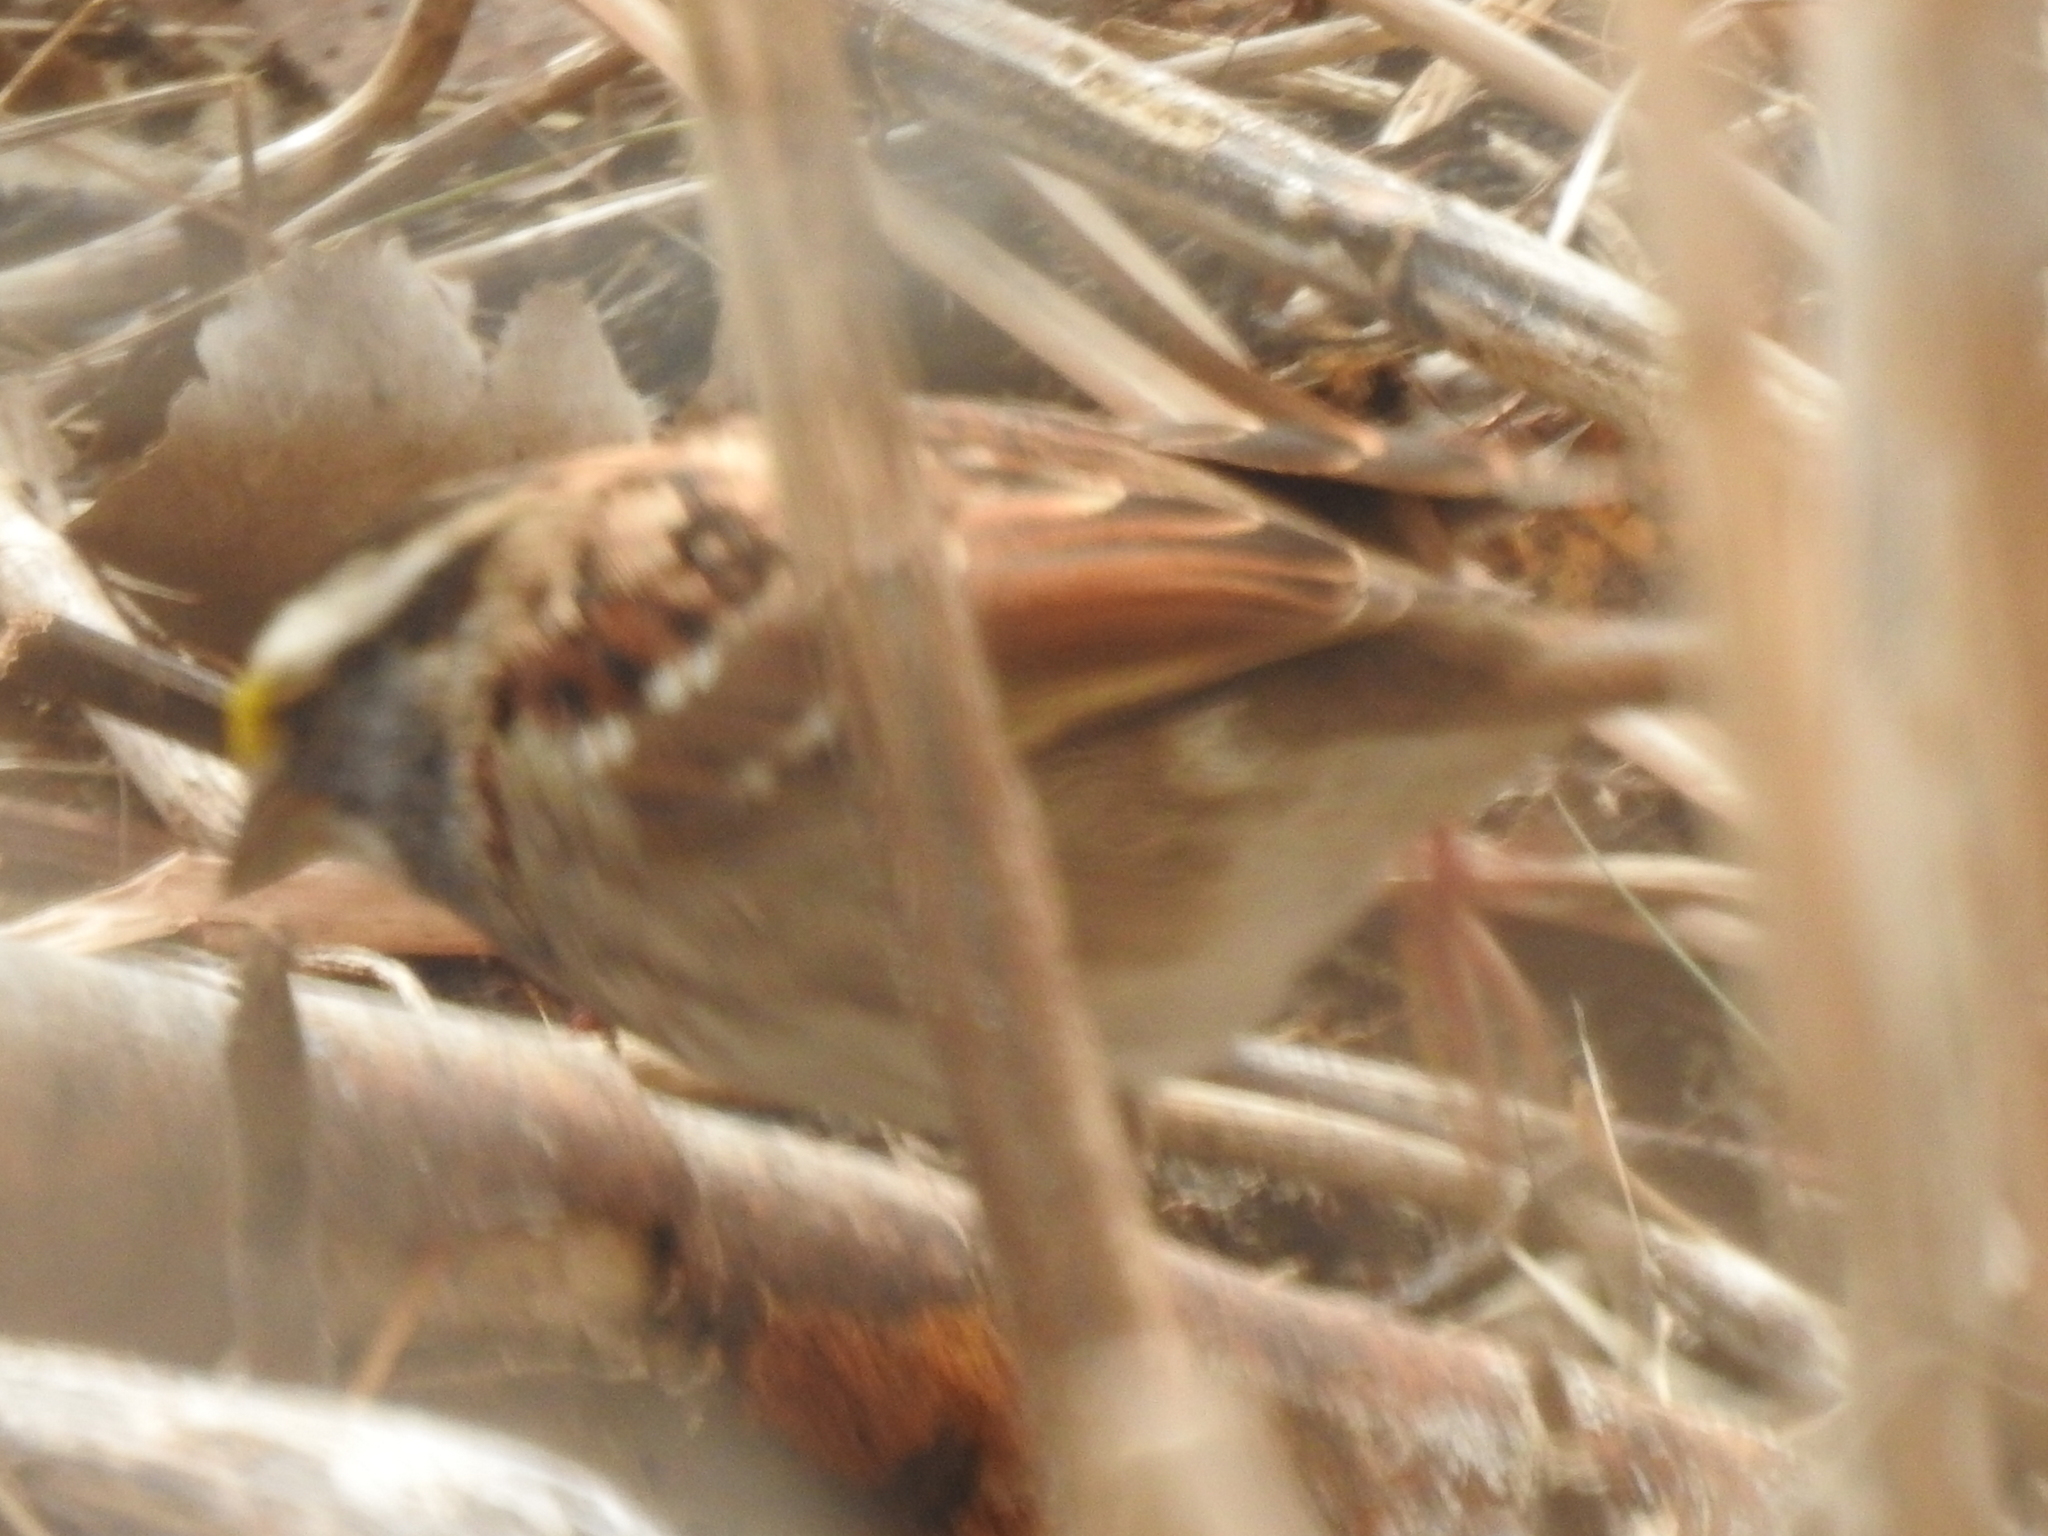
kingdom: Animalia
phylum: Chordata
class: Aves
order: Passeriformes
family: Passerellidae
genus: Zonotrichia
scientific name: Zonotrichia albicollis
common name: White-throated sparrow
